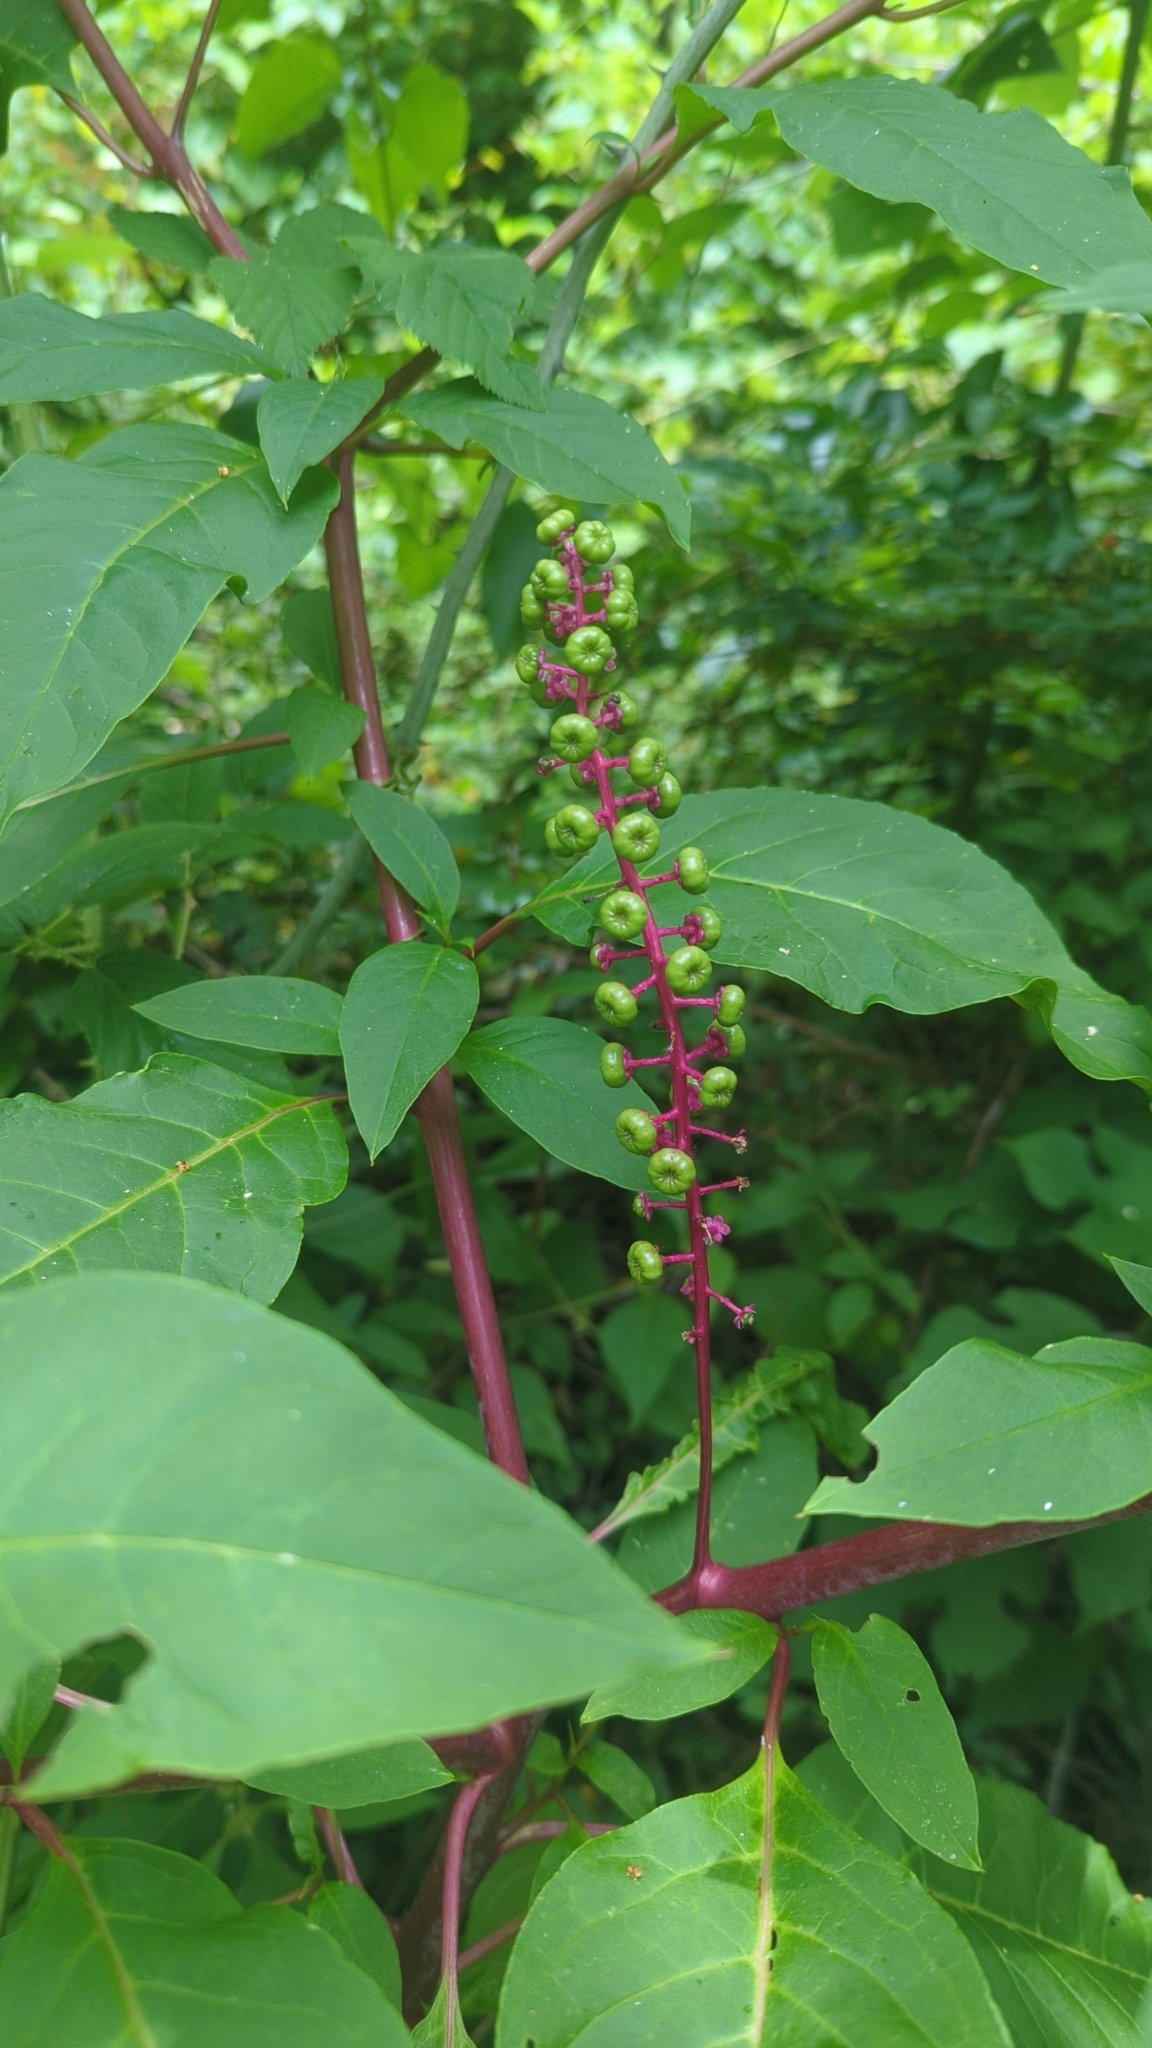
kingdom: Plantae
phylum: Tracheophyta
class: Magnoliopsida
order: Caryophyllales
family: Phytolaccaceae
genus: Phytolacca
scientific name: Phytolacca americana
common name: American pokeweed
